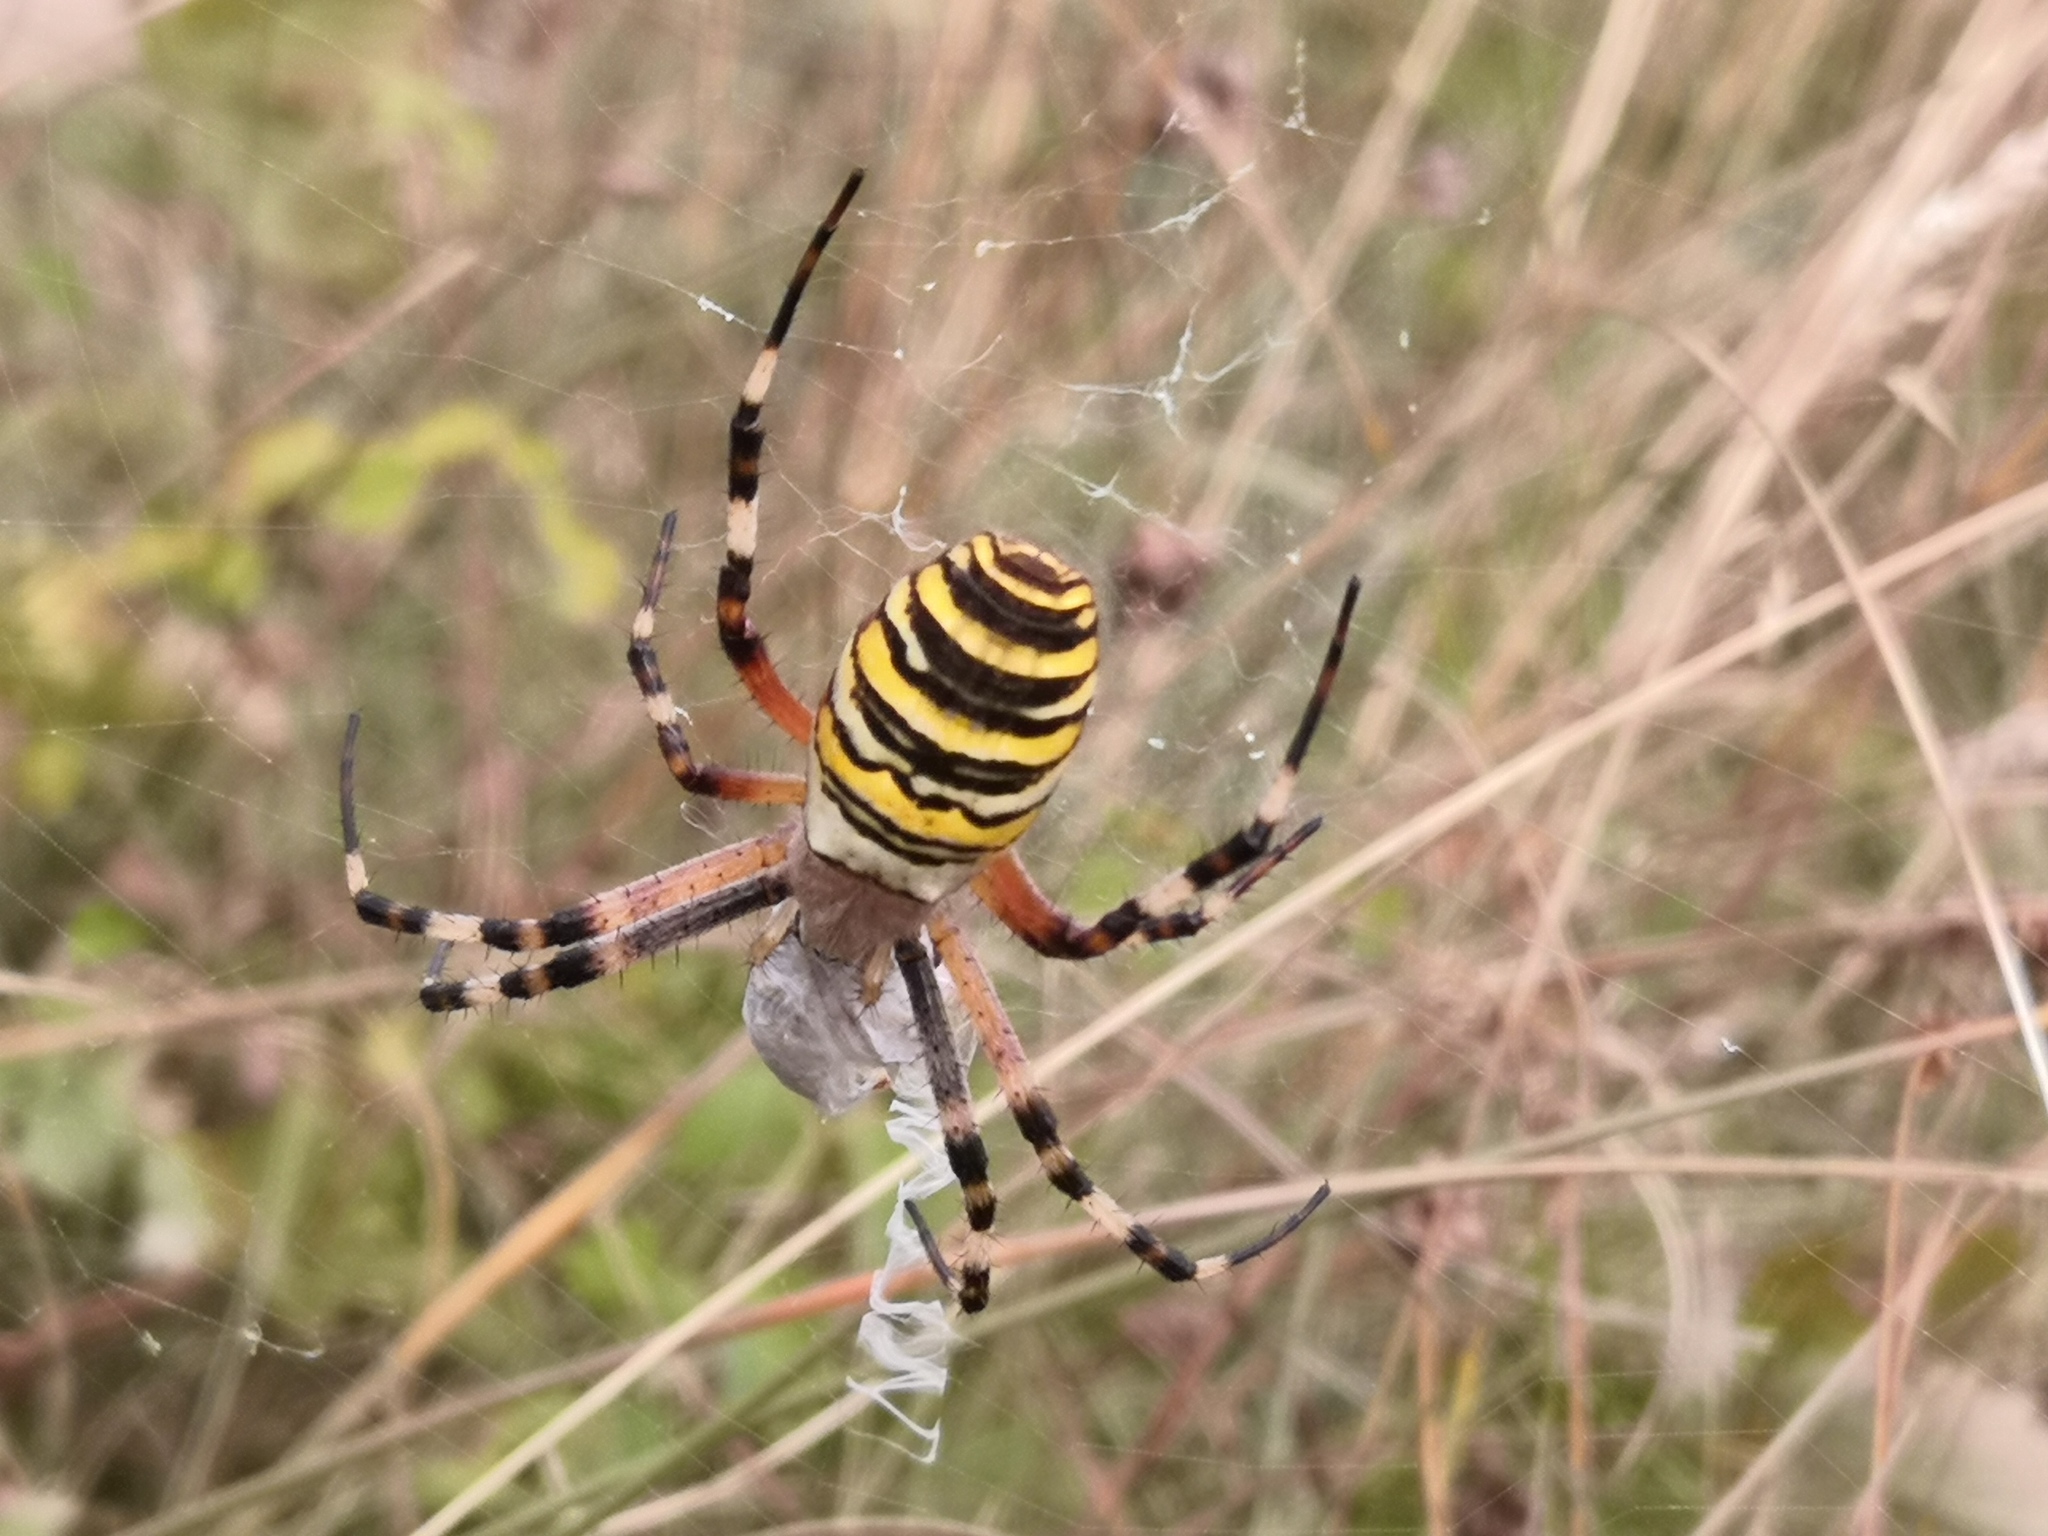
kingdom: Animalia
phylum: Arthropoda
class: Arachnida
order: Araneae
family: Araneidae
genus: Argiope
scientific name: Argiope bruennichi
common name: Wasp spider
